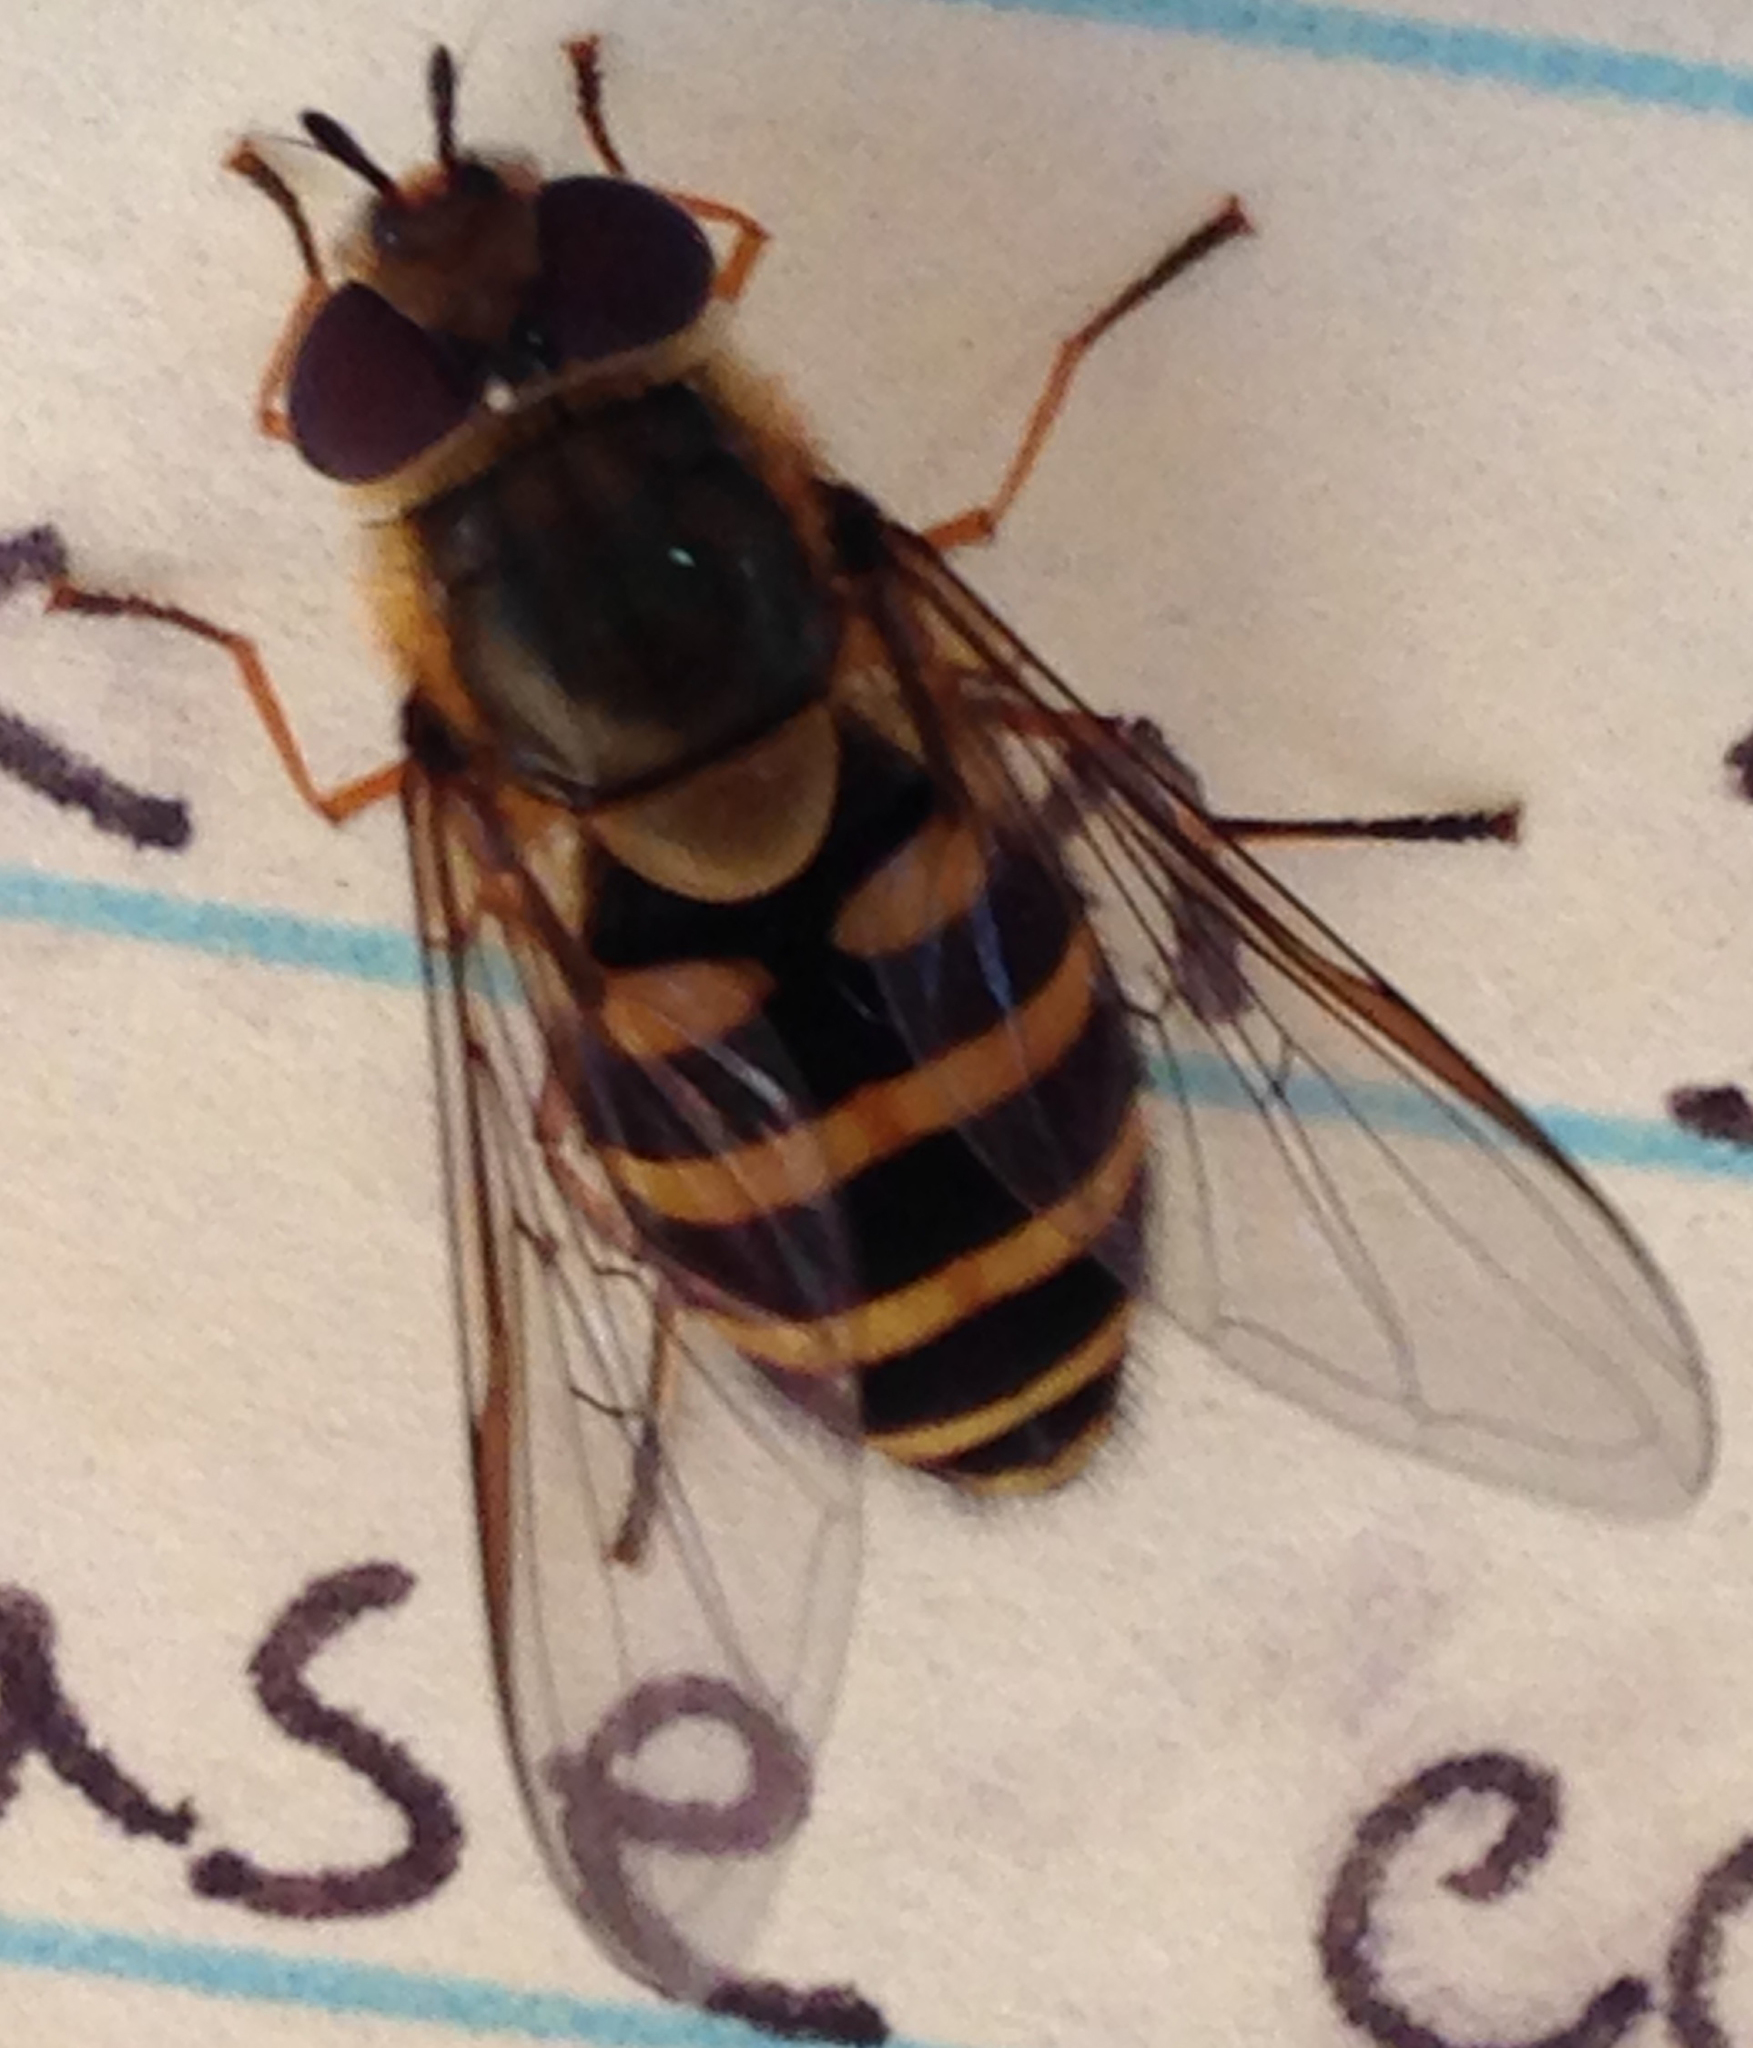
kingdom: Animalia
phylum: Arthropoda
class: Insecta
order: Diptera
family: Syrphidae
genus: Syrphus
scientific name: Syrphus
